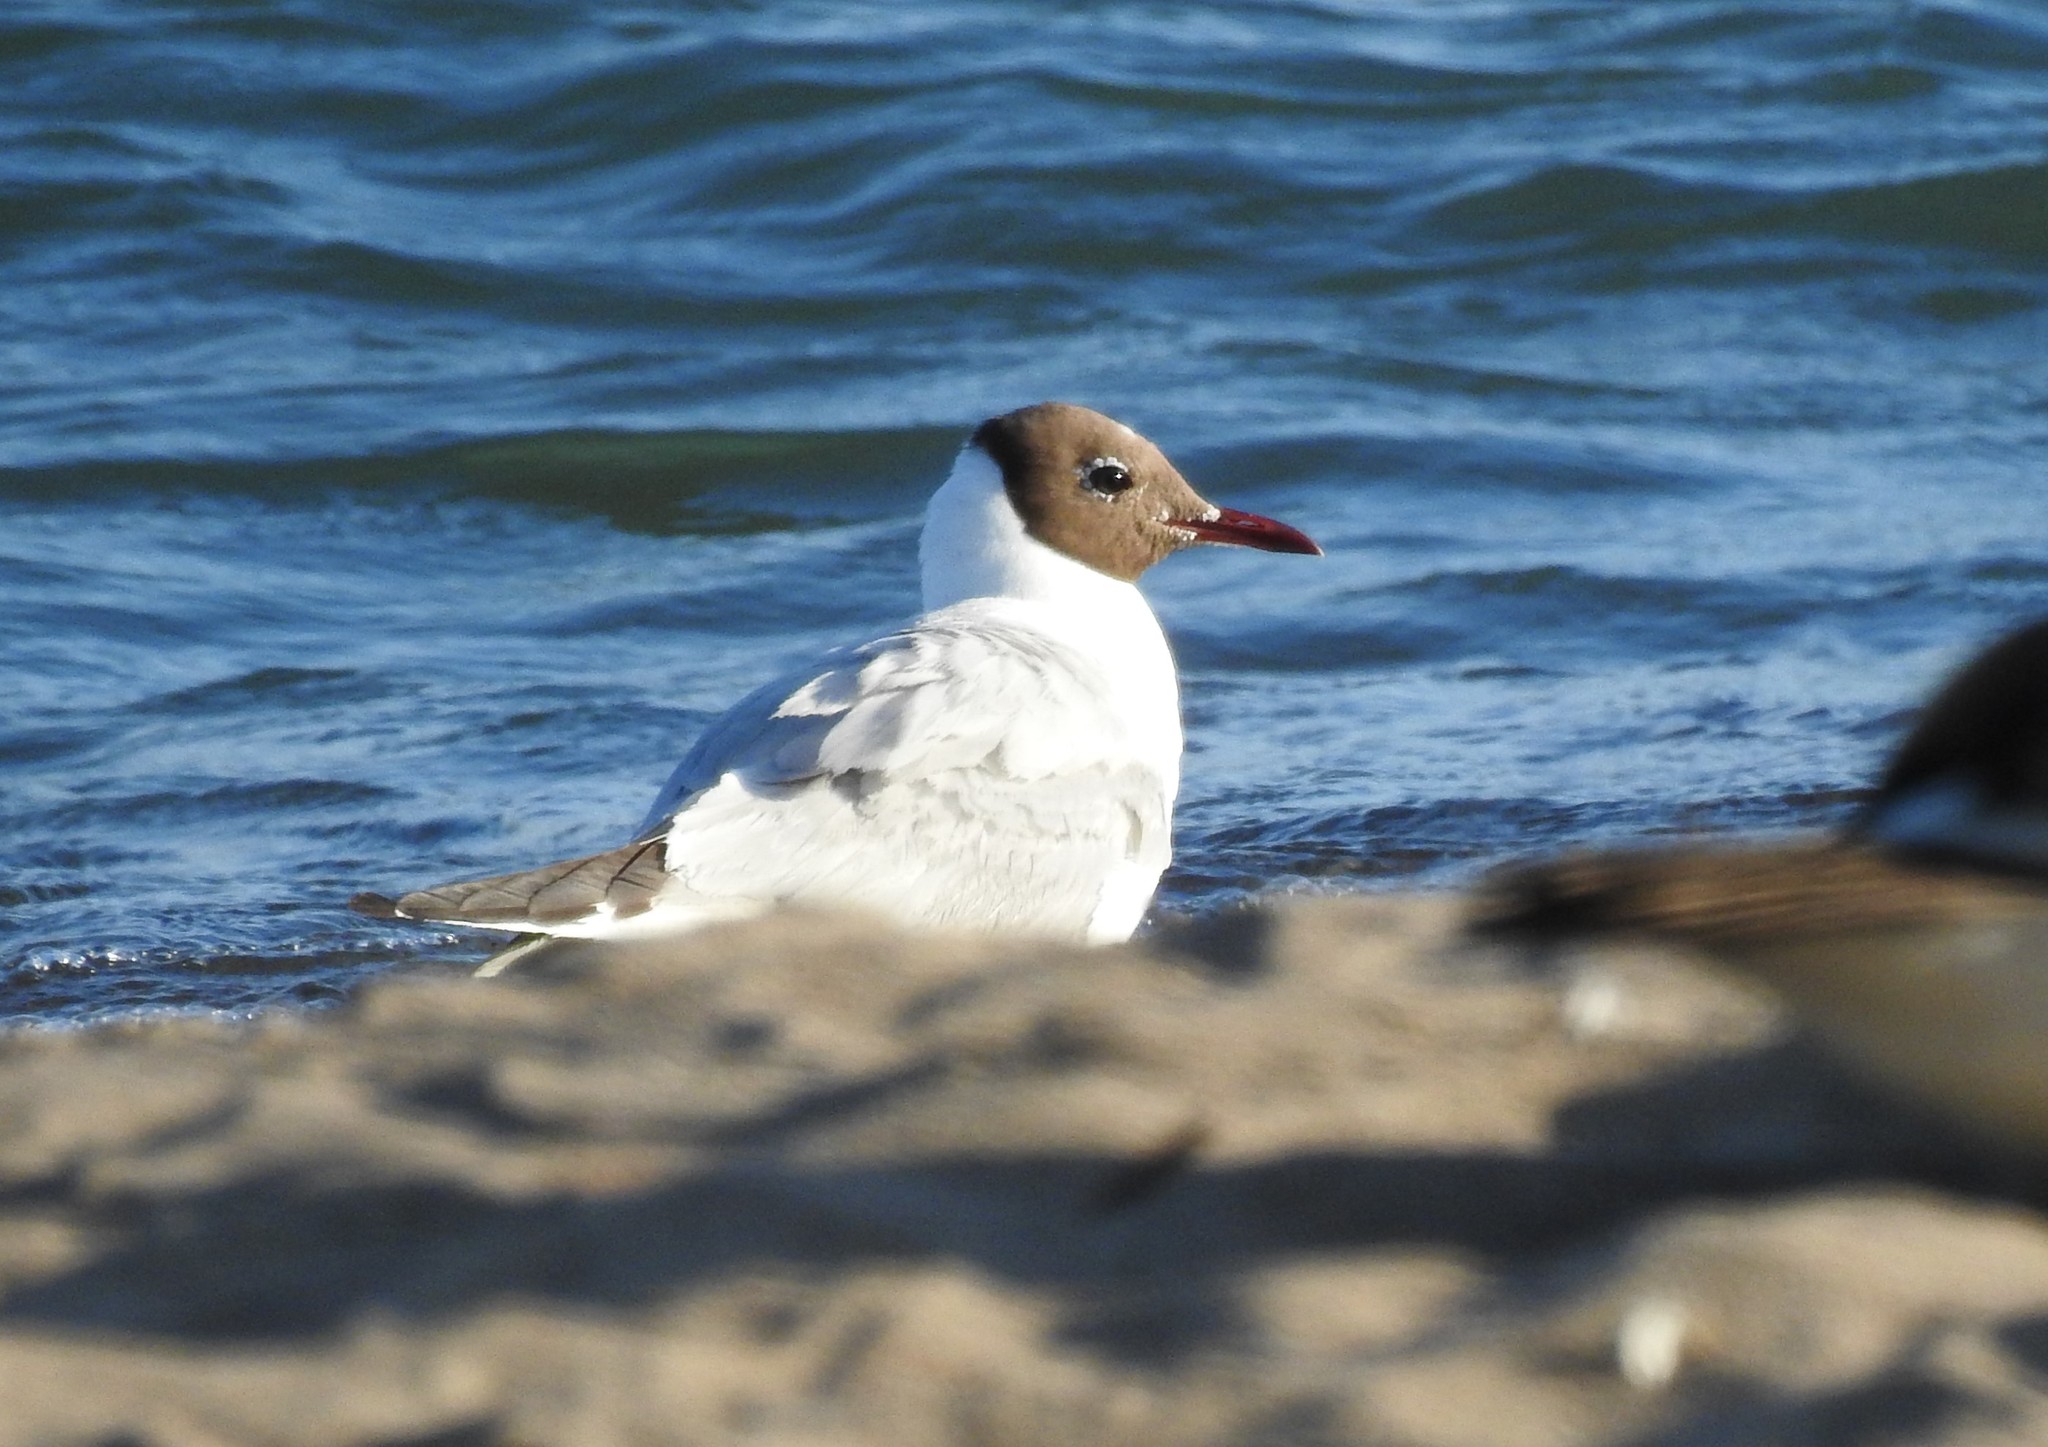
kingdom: Animalia
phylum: Chordata
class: Aves
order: Charadriiformes
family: Laridae
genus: Chroicocephalus
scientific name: Chroicocephalus ridibundus
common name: Black-headed gull
